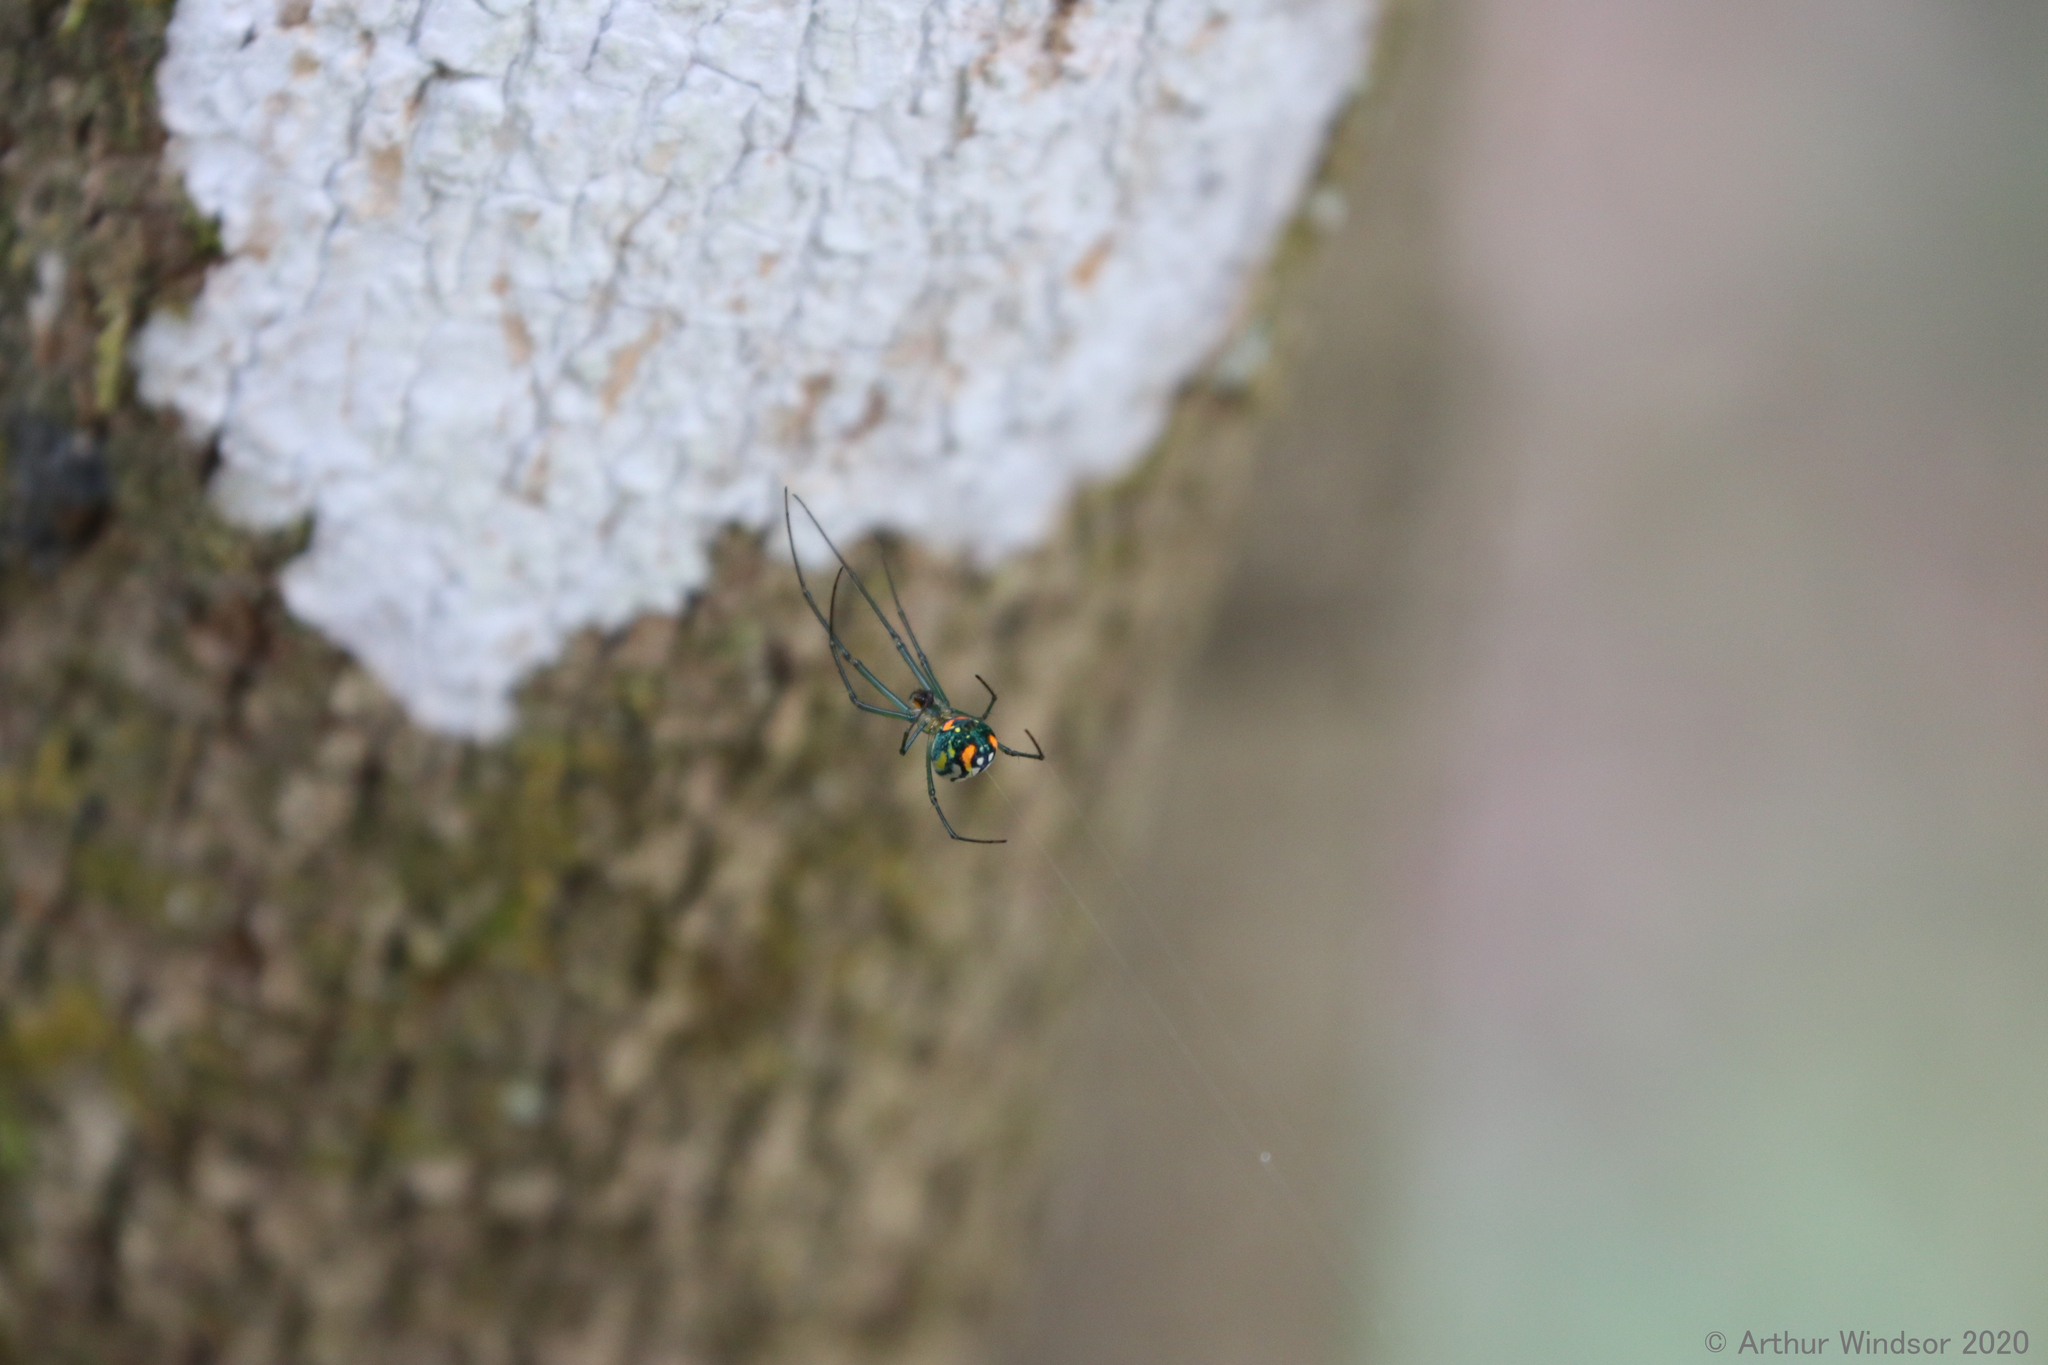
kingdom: Animalia
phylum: Arthropoda
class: Arachnida
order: Araneae
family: Tetragnathidae
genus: Leucauge
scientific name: Leucauge argyrobapta
